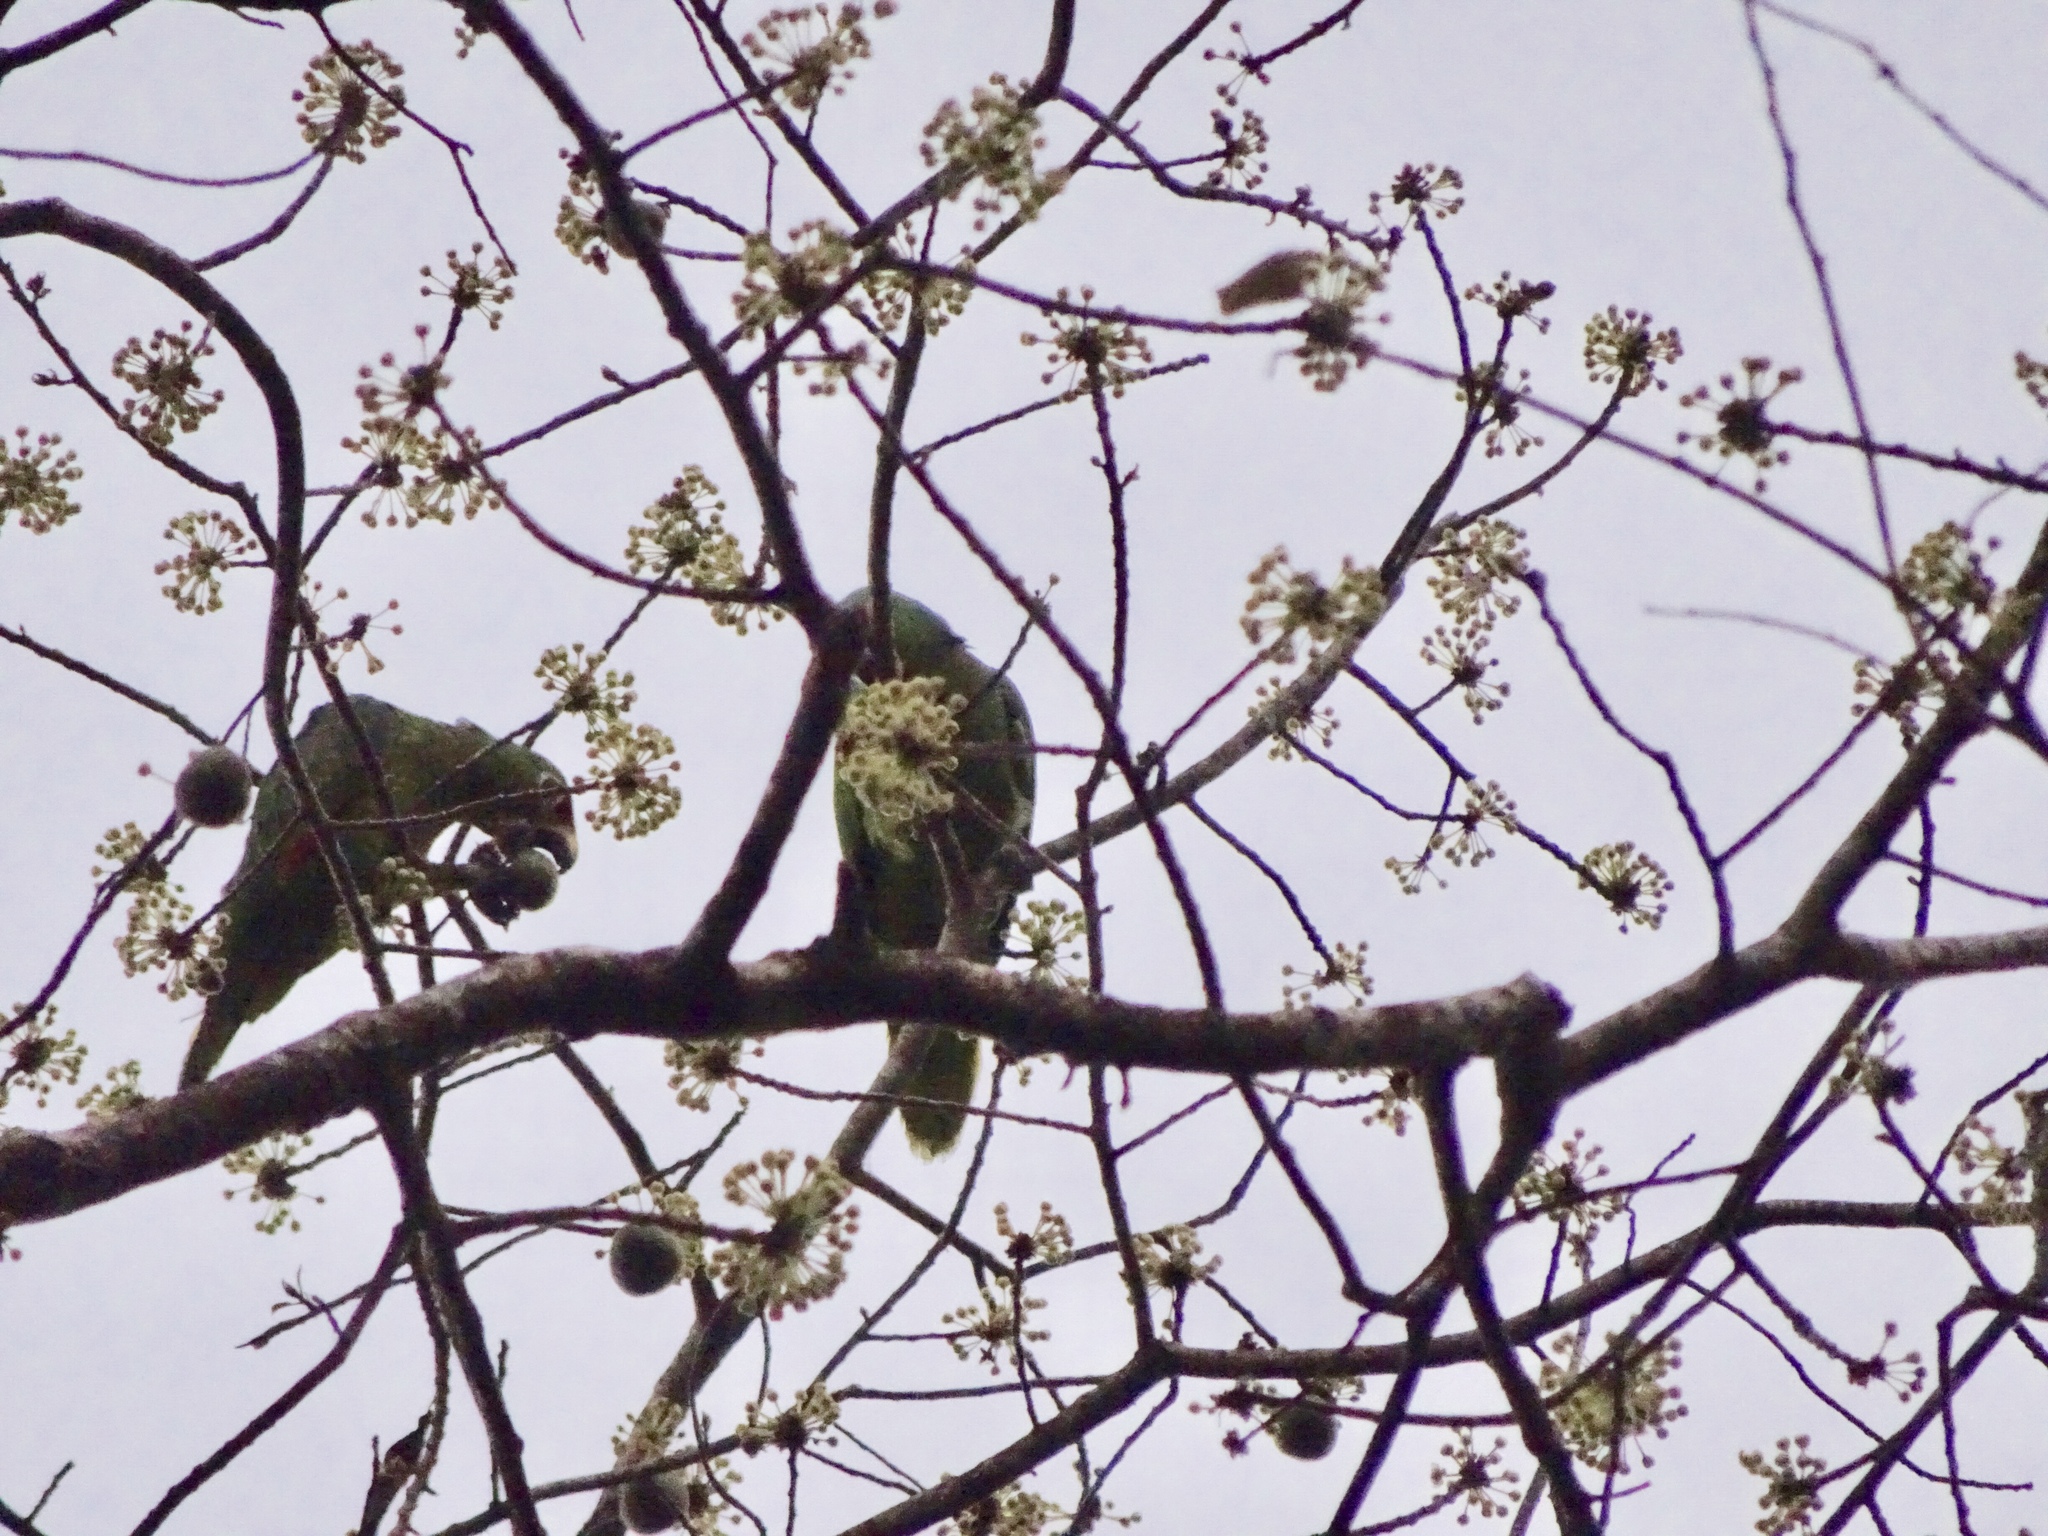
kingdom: Animalia
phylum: Chordata
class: Aves
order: Psittaciformes
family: Psittacidae
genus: Amazona
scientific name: Amazona autumnalis
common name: Red-lored amazon
